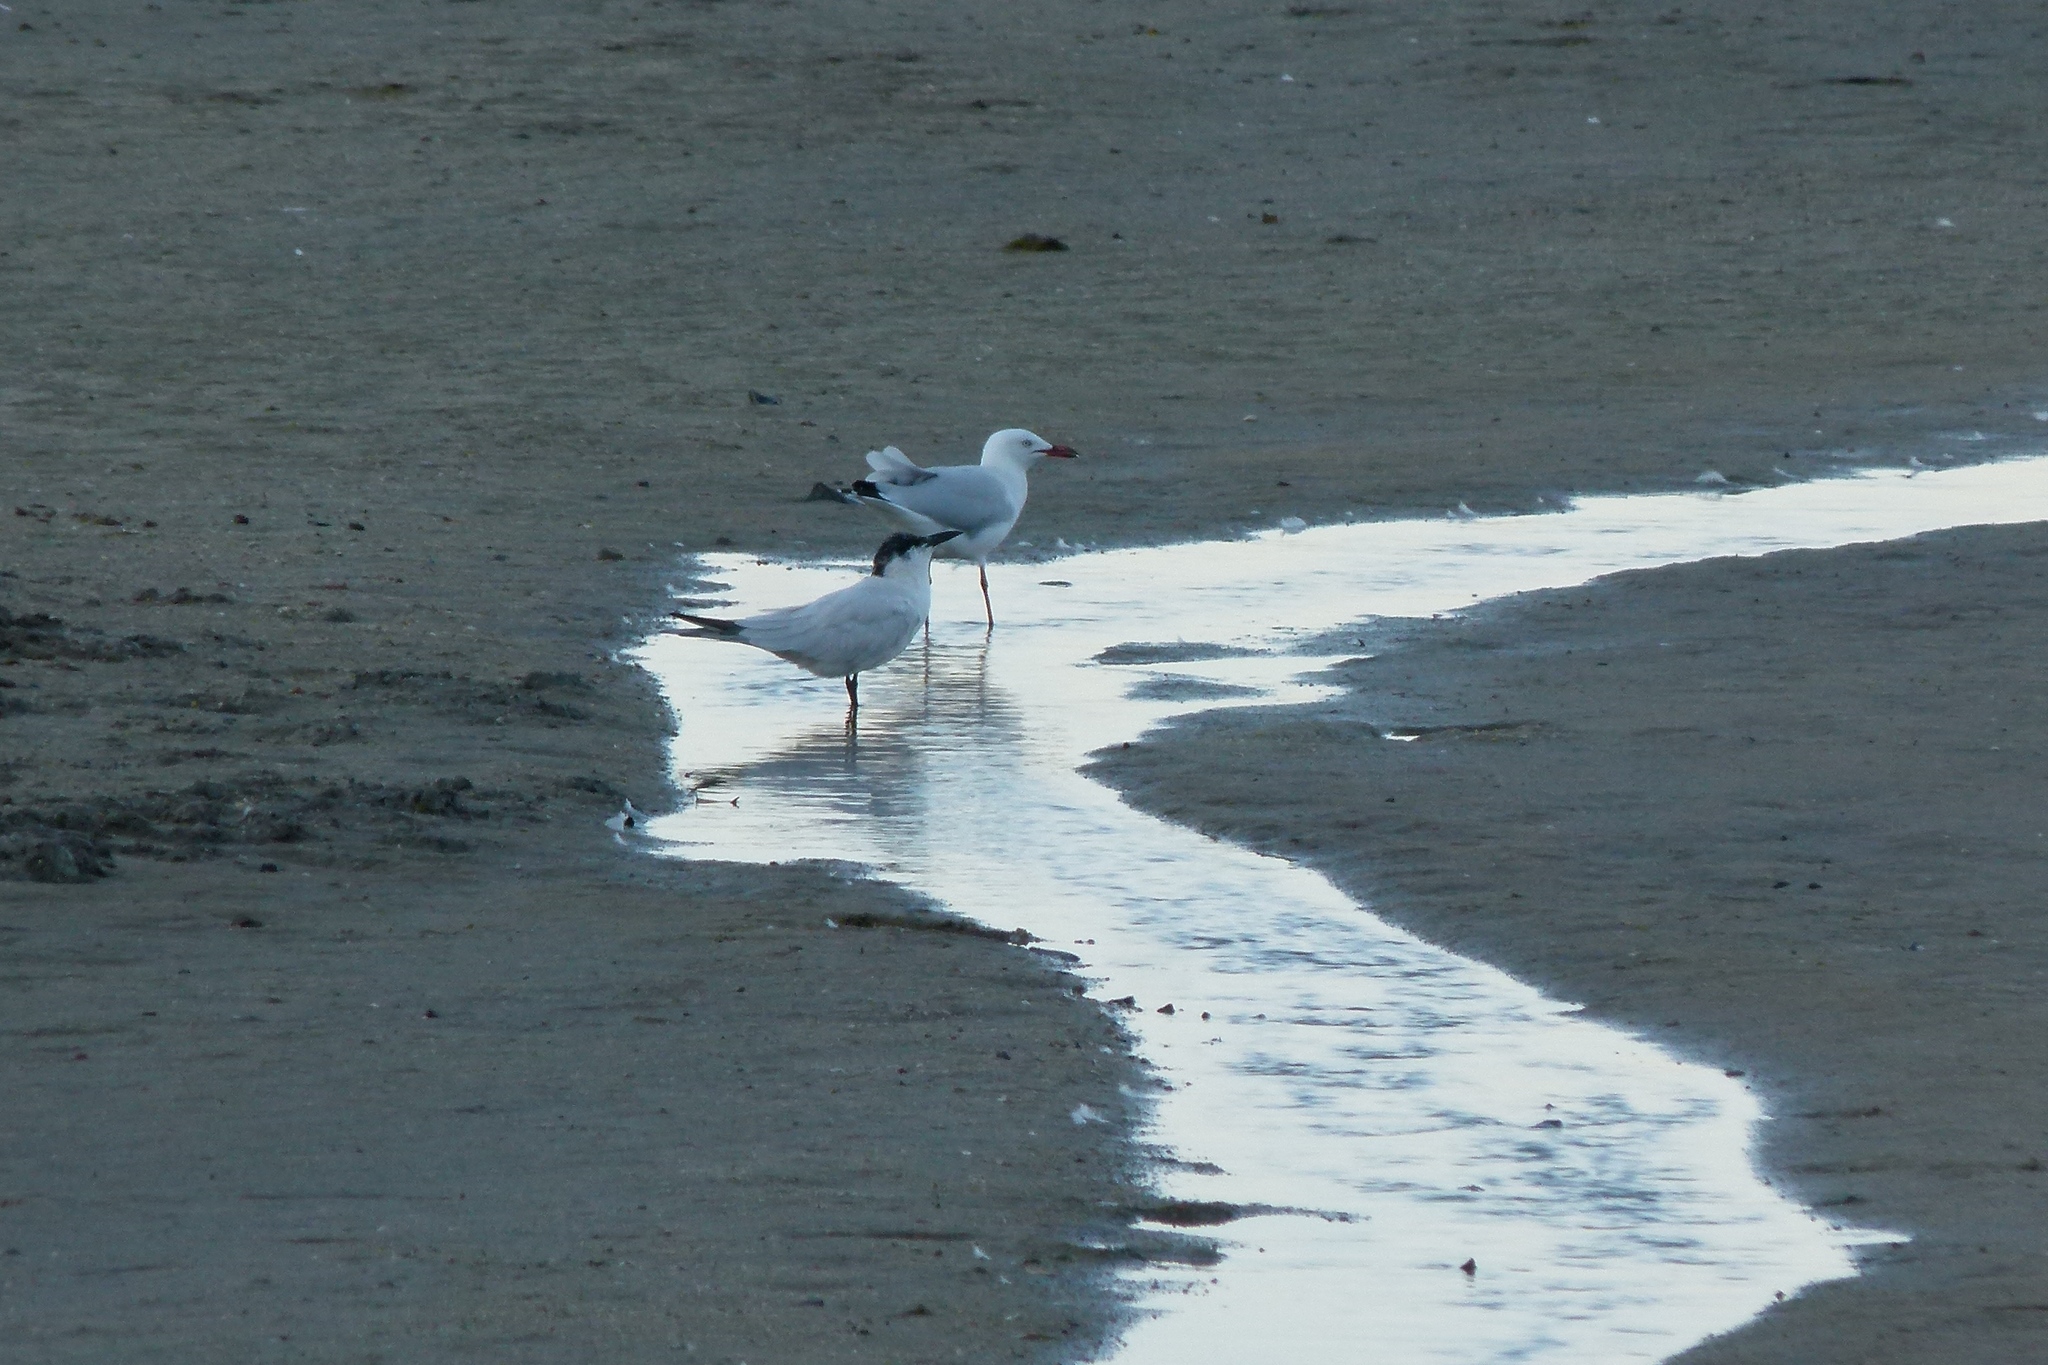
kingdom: Animalia
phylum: Chordata
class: Aves
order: Charadriiformes
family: Laridae
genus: Gelochelidon
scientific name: Gelochelidon macrotarsa
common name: Australian tern
